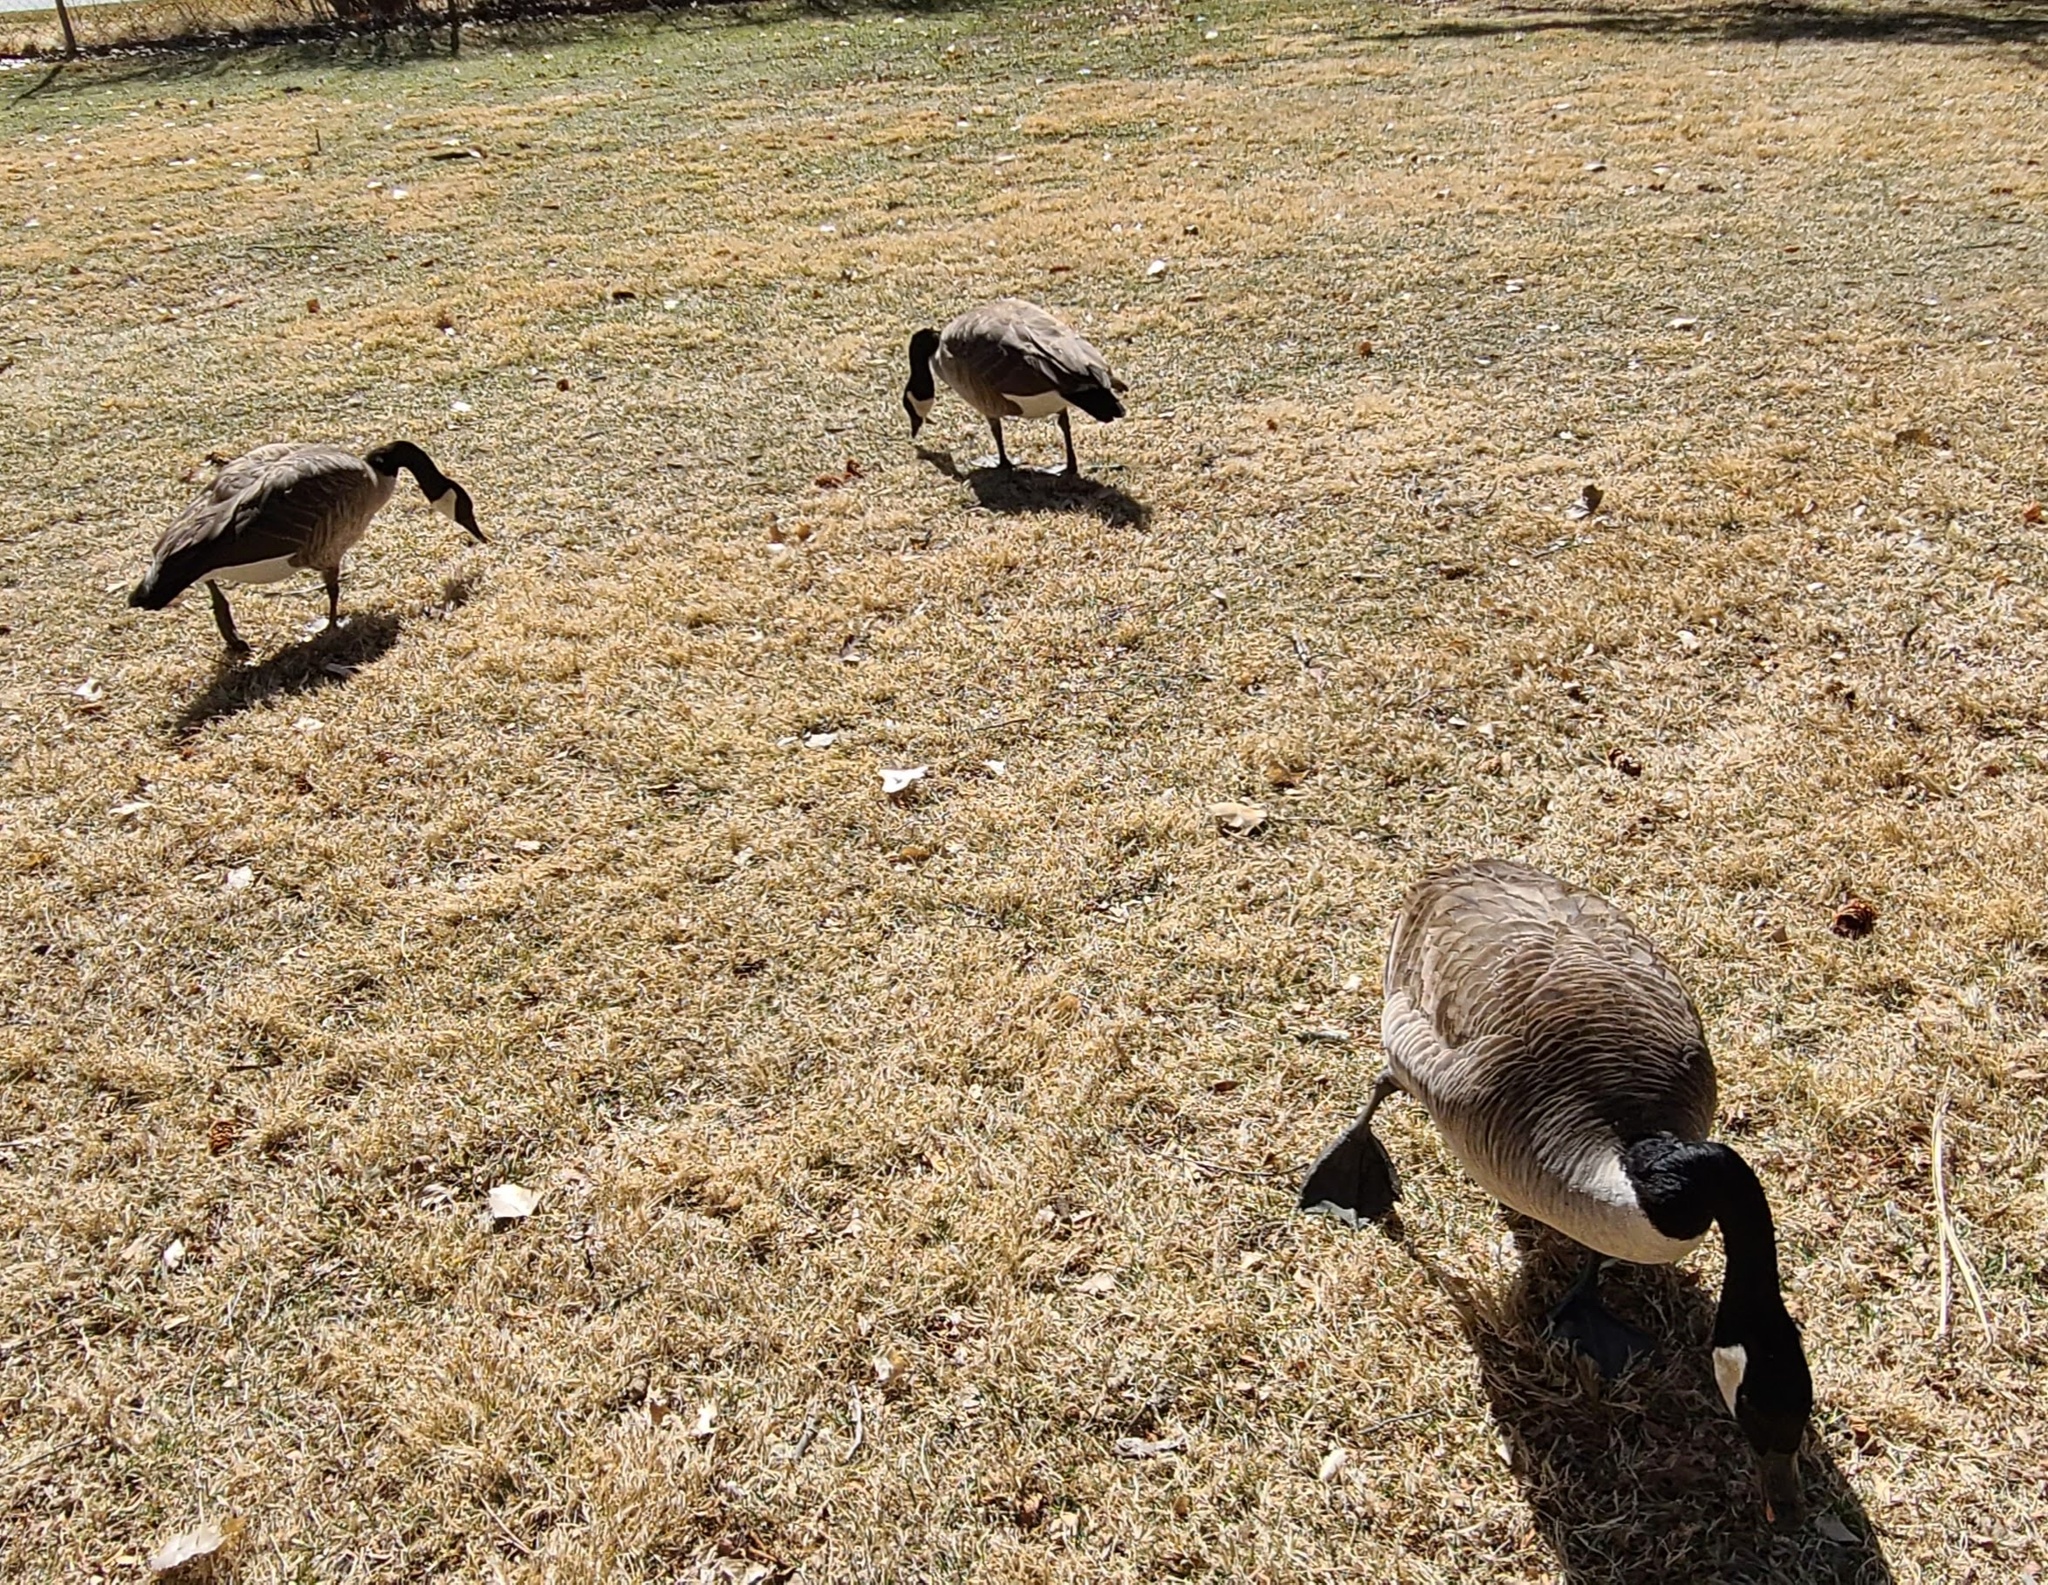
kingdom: Animalia
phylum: Chordata
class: Aves
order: Anseriformes
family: Anatidae
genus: Branta
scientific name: Branta canadensis
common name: Canada goose
